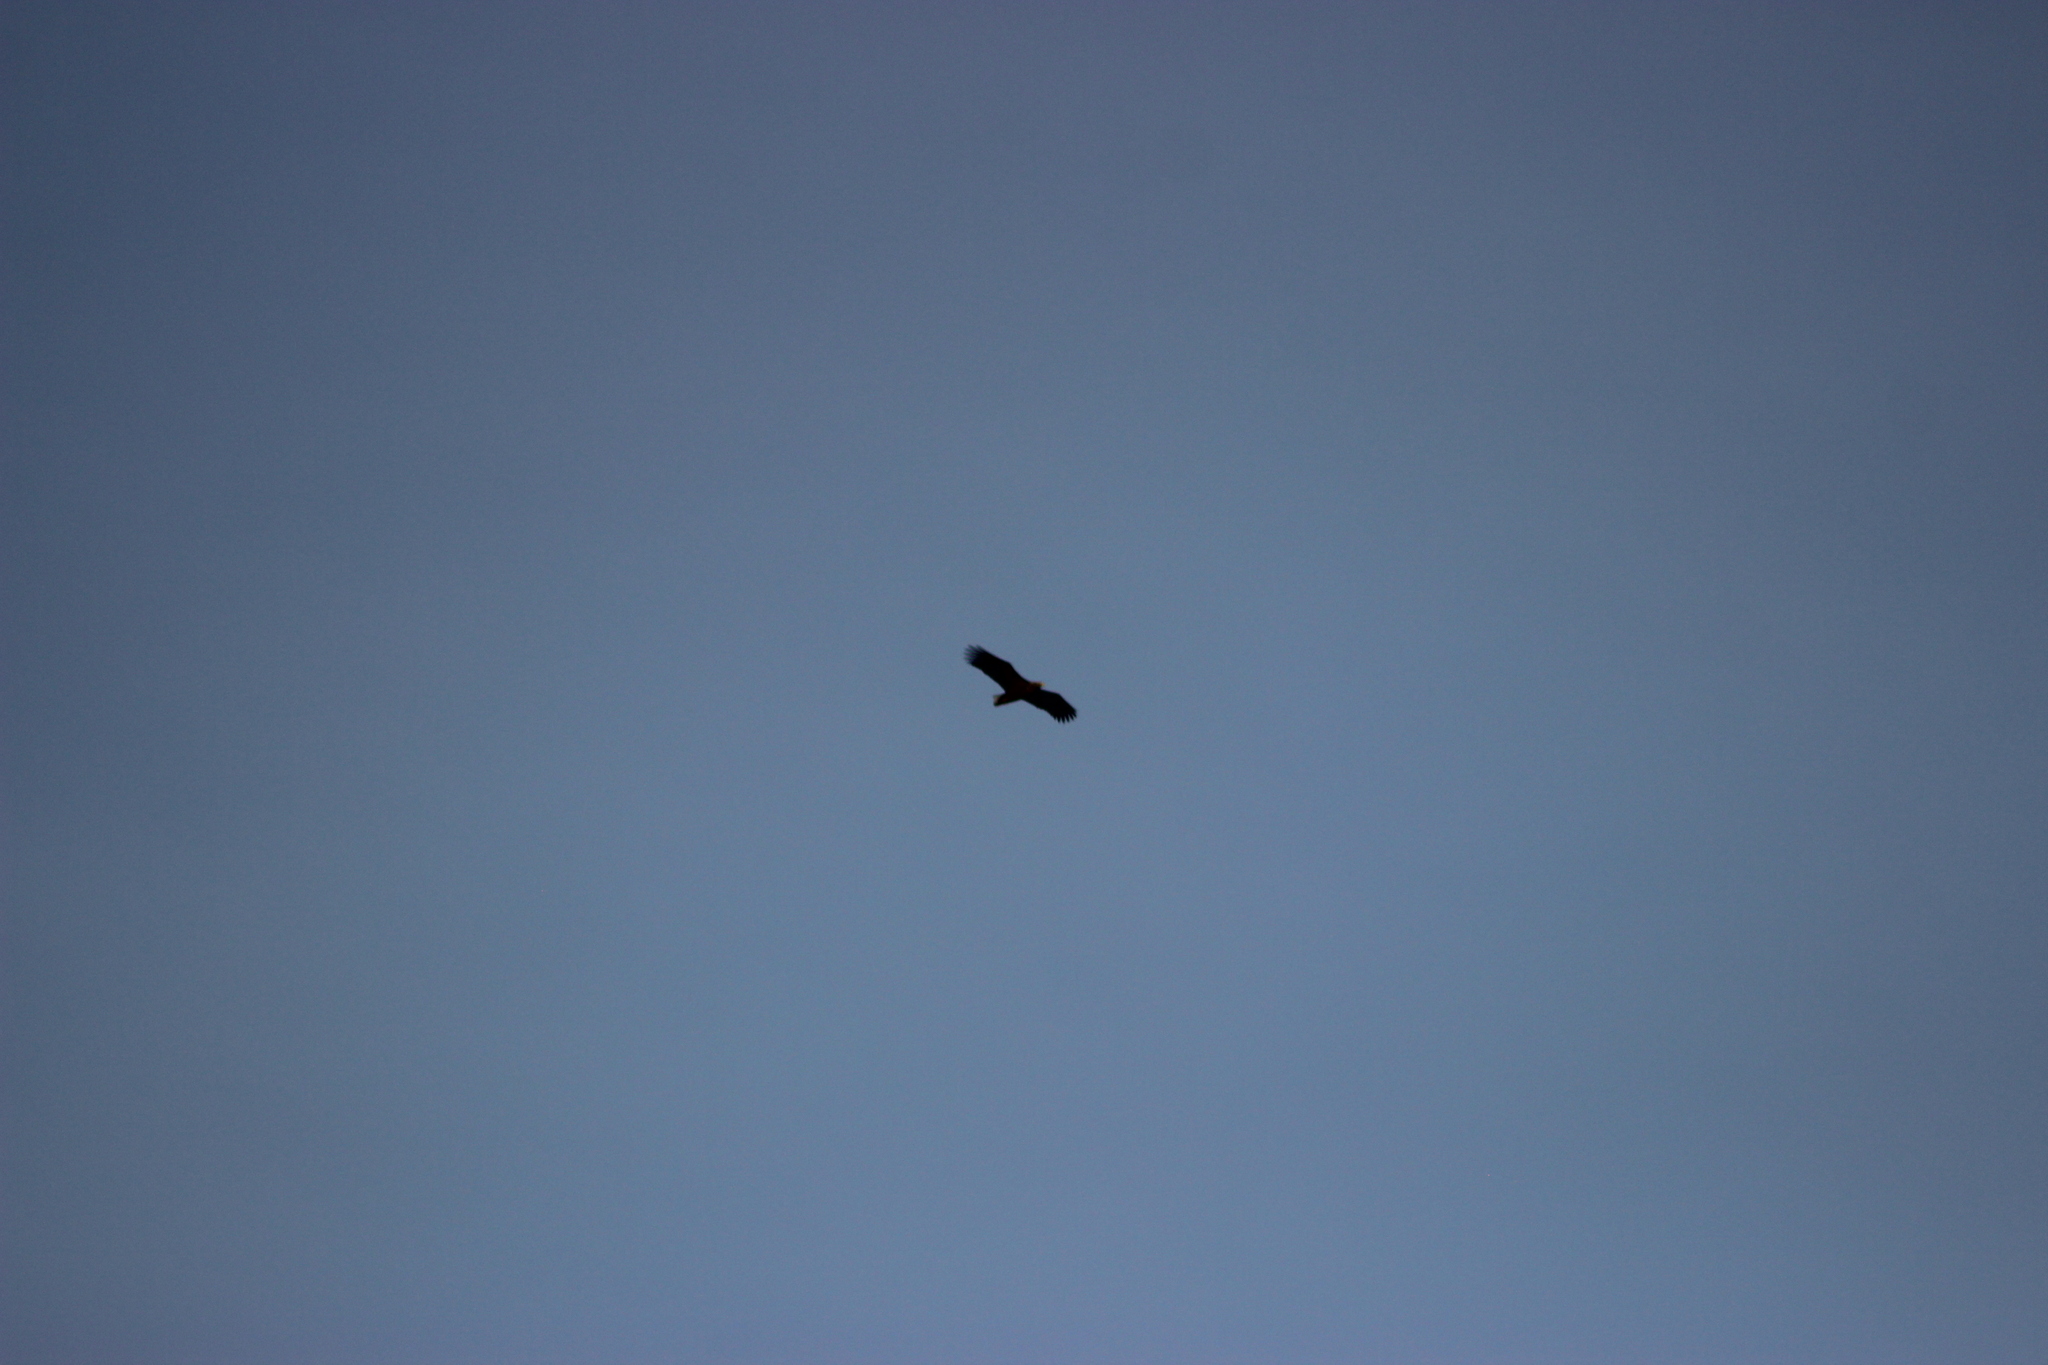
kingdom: Animalia
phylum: Chordata
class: Aves
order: Accipitriformes
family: Accipitridae
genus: Haliaeetus
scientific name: Haliaeetus albicilla
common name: White-tailed eagle
